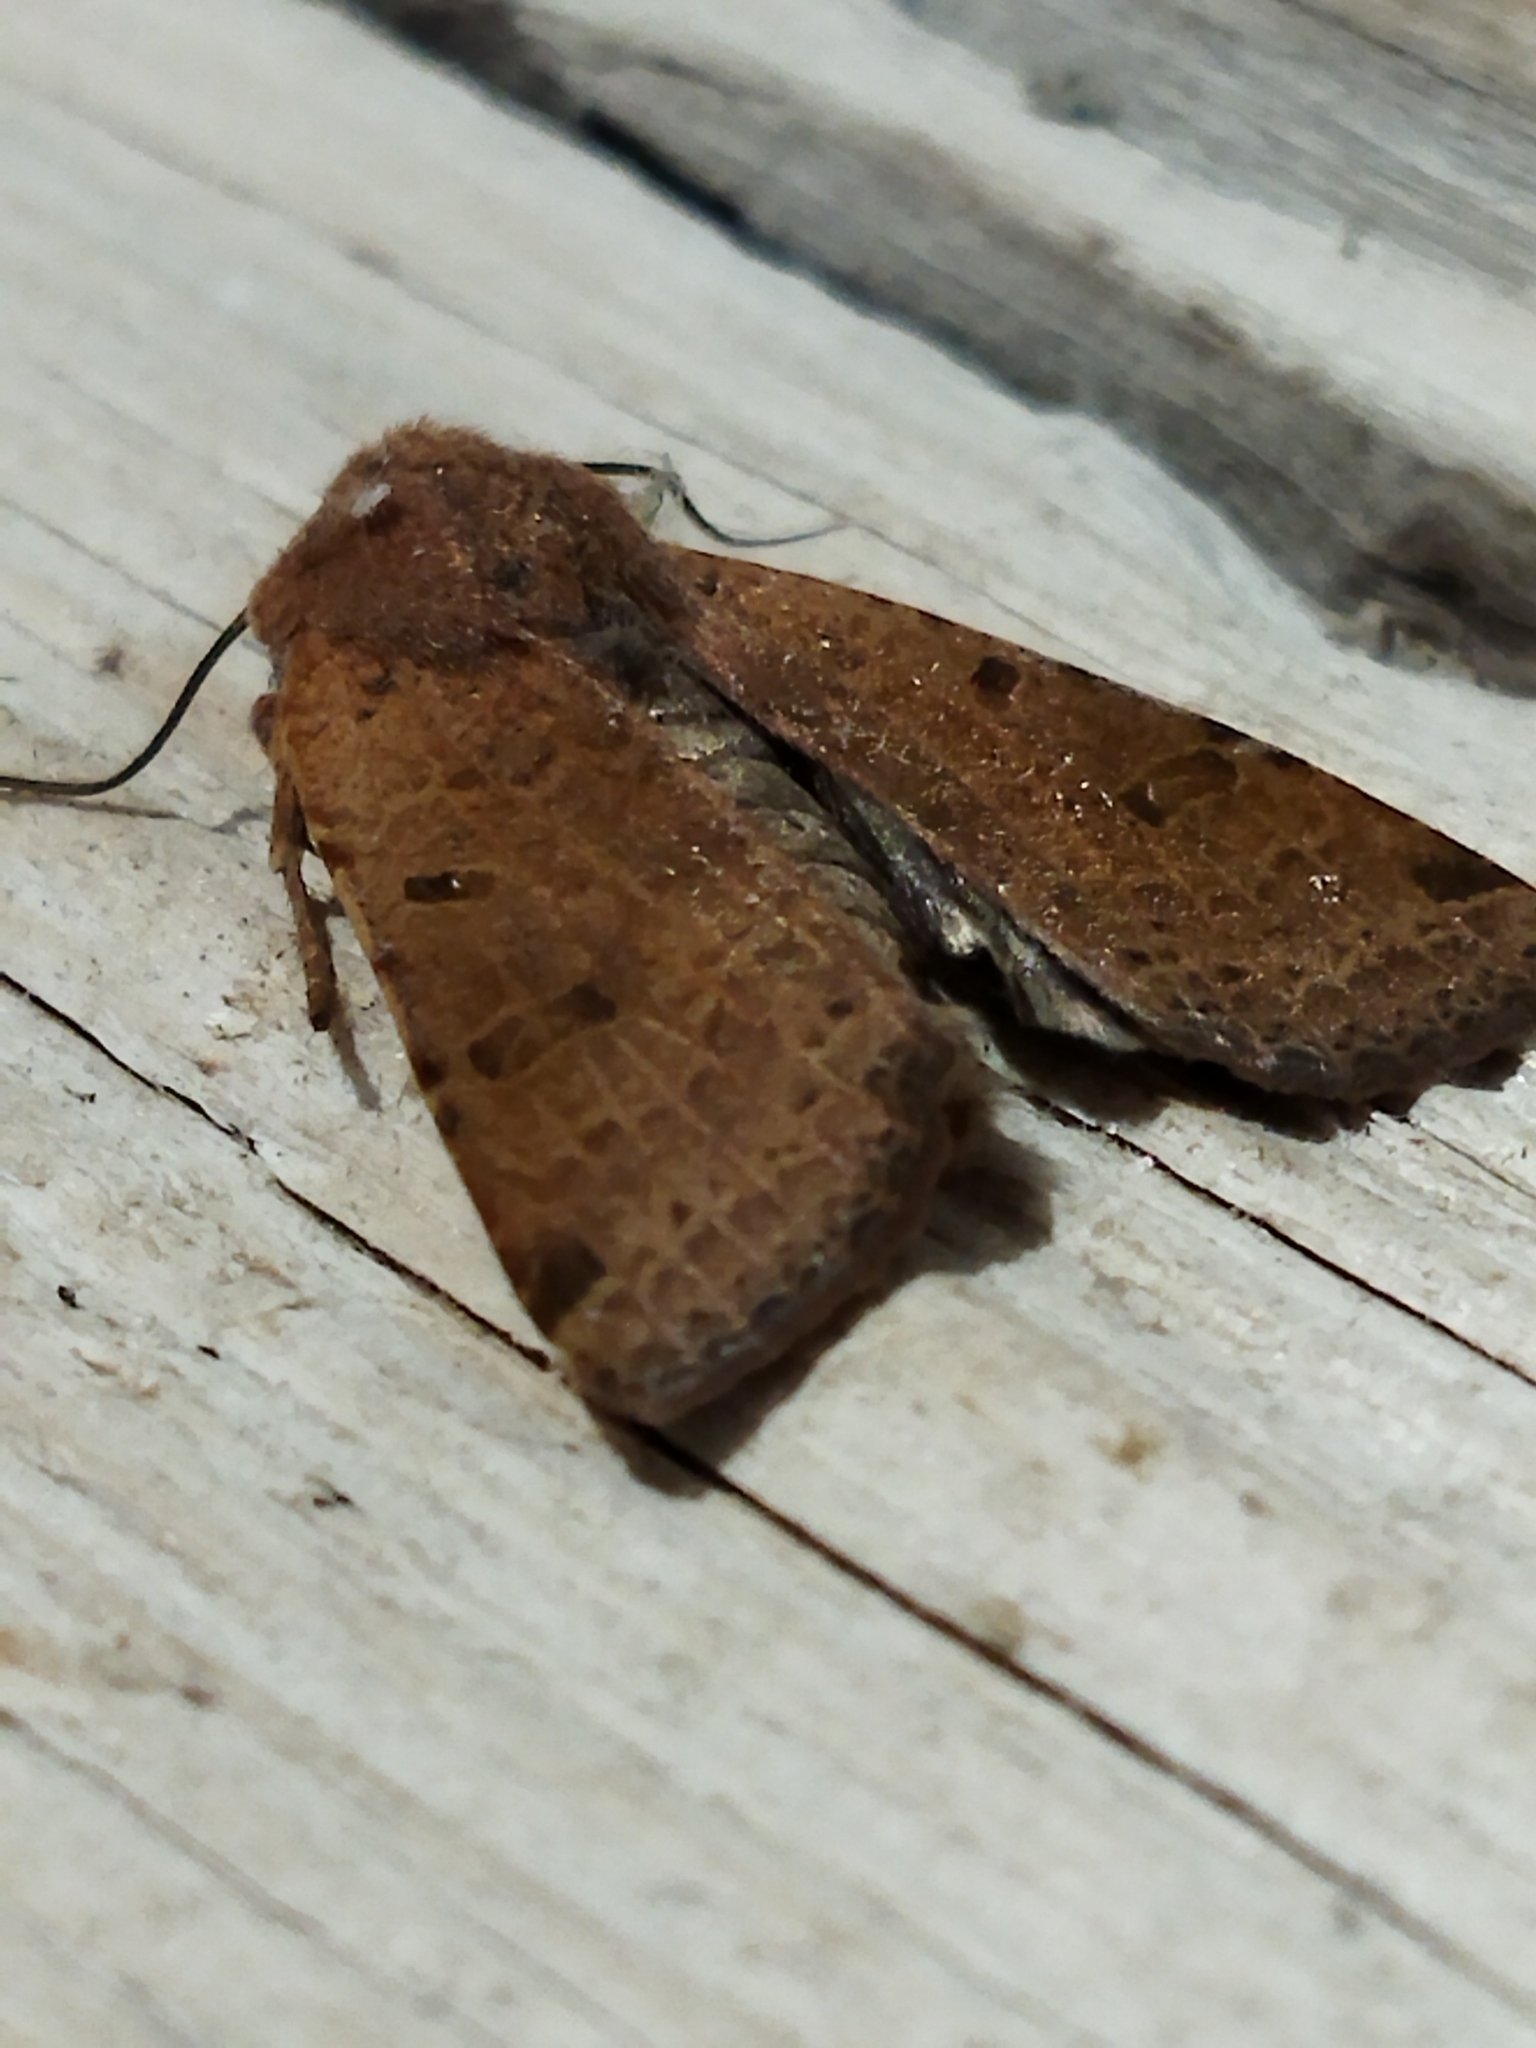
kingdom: Animalia
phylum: Arthropoda
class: Insecta
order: Lepidoptera
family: Noctuidae
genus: Agrochola
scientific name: Agrochola lychnidis
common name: Beaded chestnut
